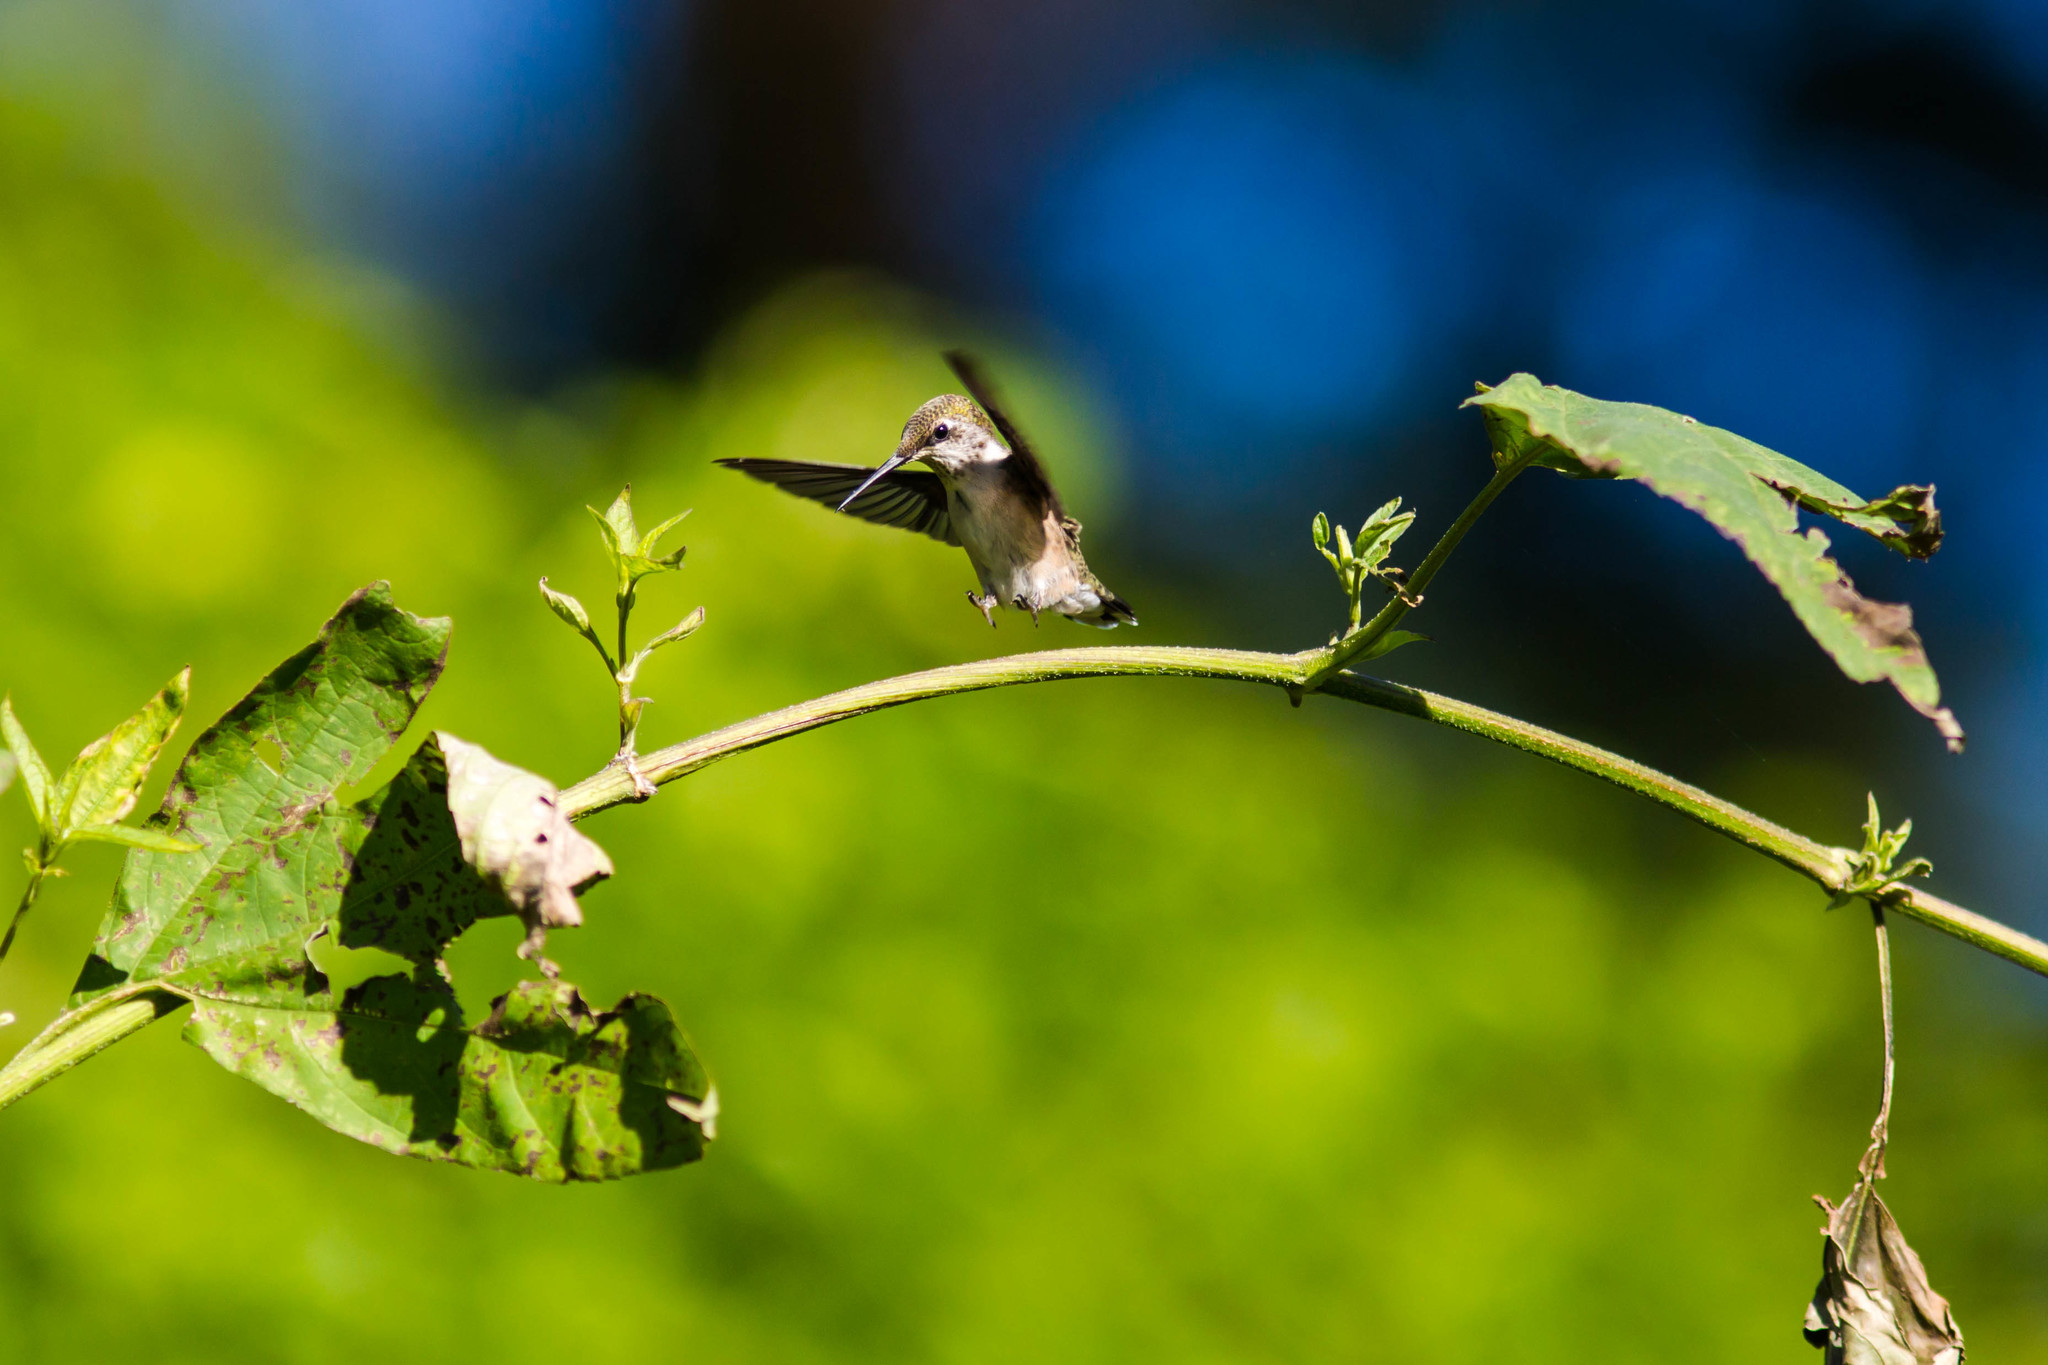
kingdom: Animalia
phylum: Chordata
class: Aves
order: Apodiformes
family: Trochilidae
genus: Archilochus
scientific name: Archilochus colubris
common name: Ruby-throated hummingbird
